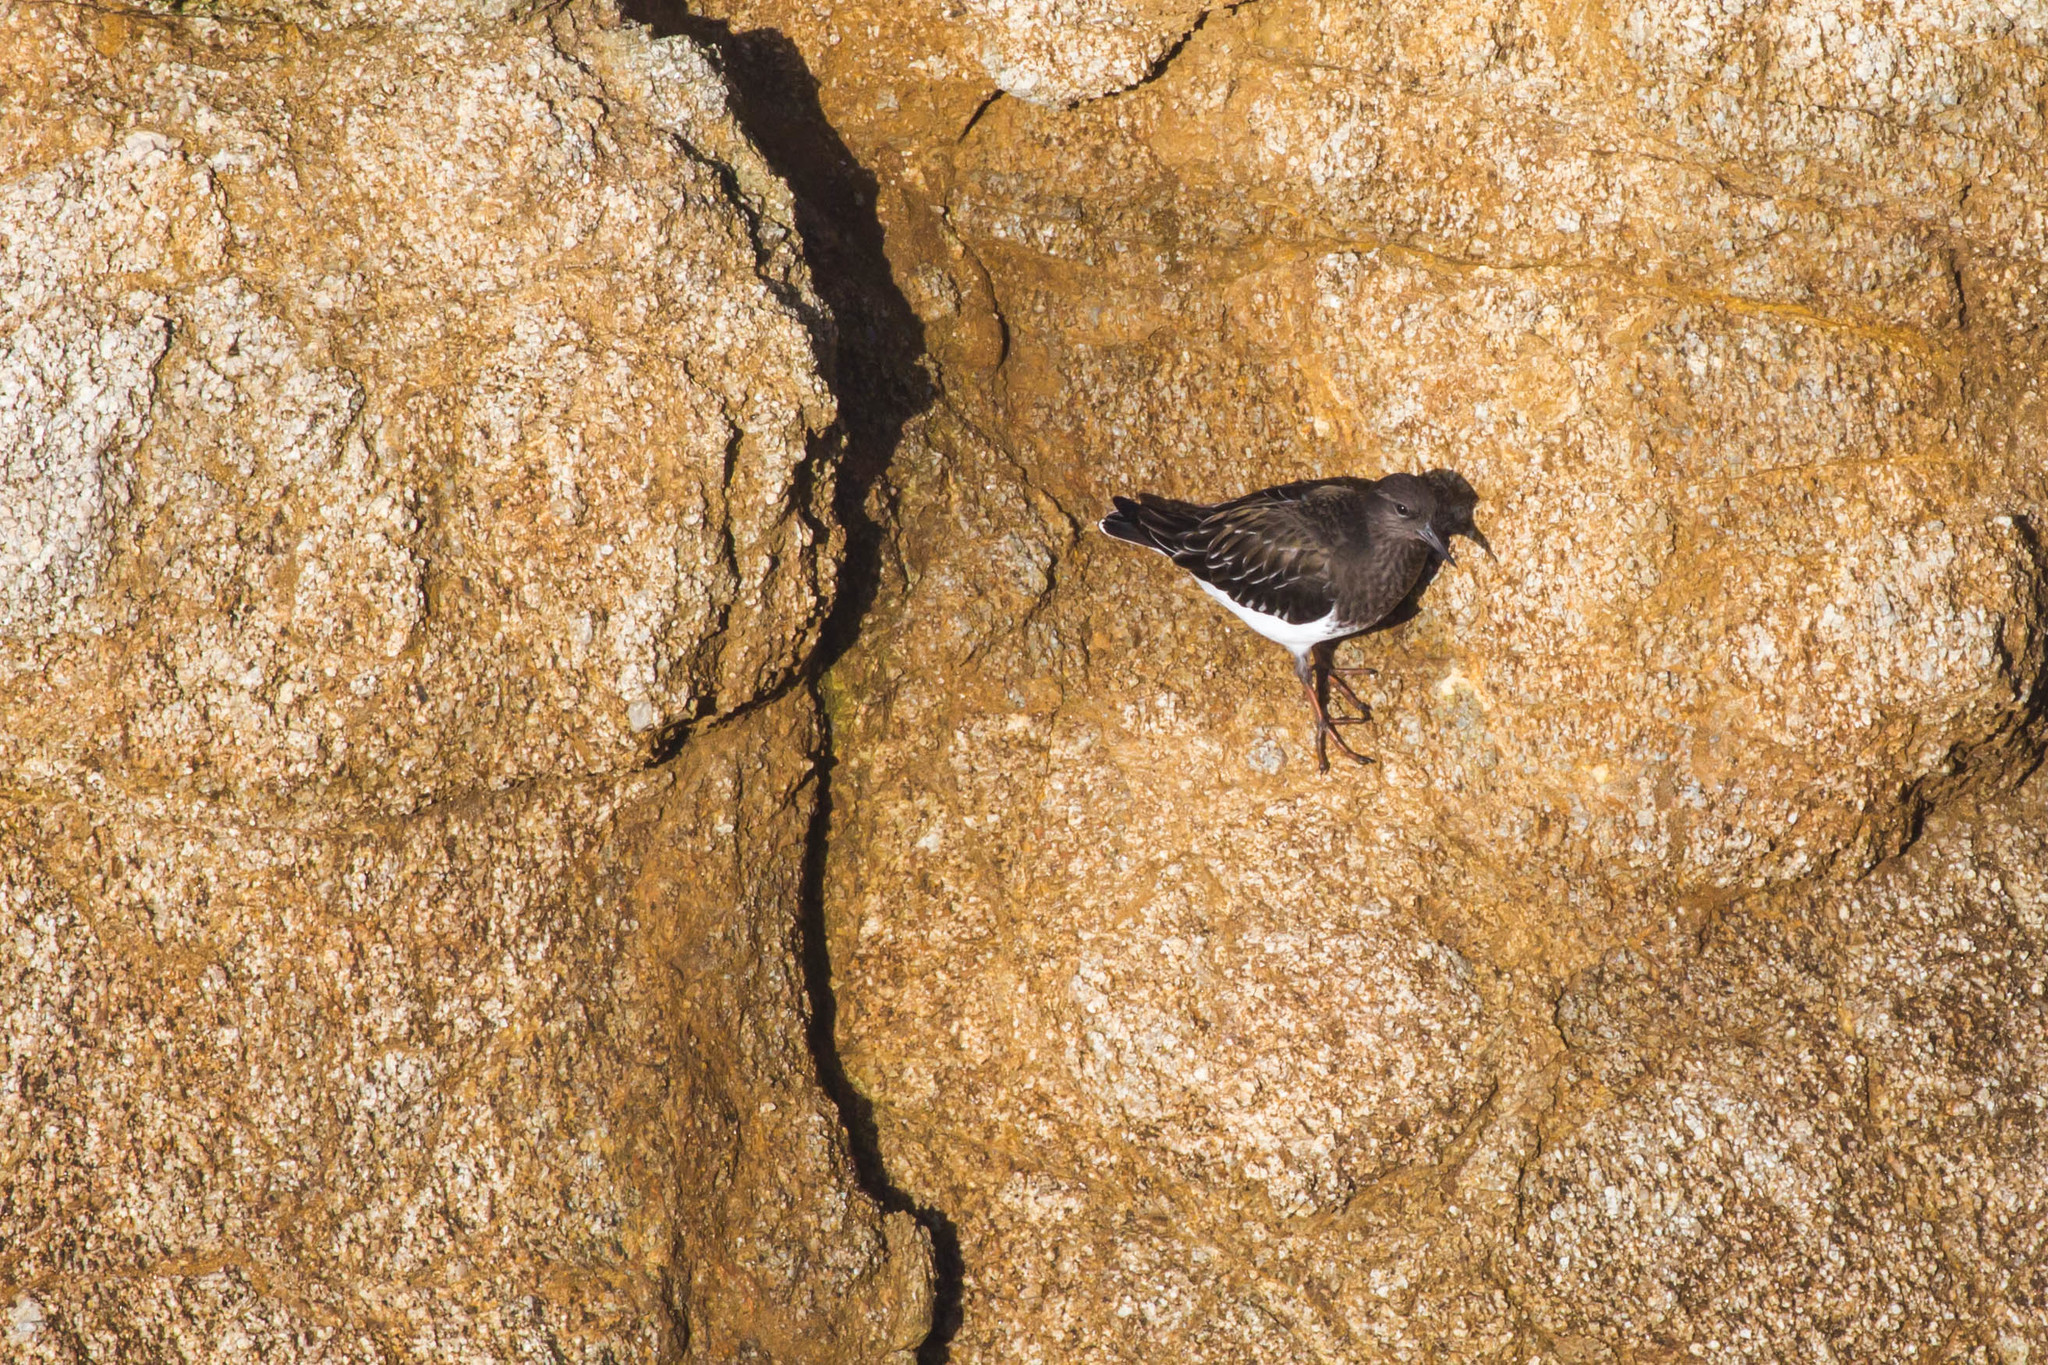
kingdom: Animalia
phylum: Chordata
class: Aves
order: Charadriiformes
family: Scolopacidae
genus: Arenaria
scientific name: Arenaria melanocephala
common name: Black turnstone
